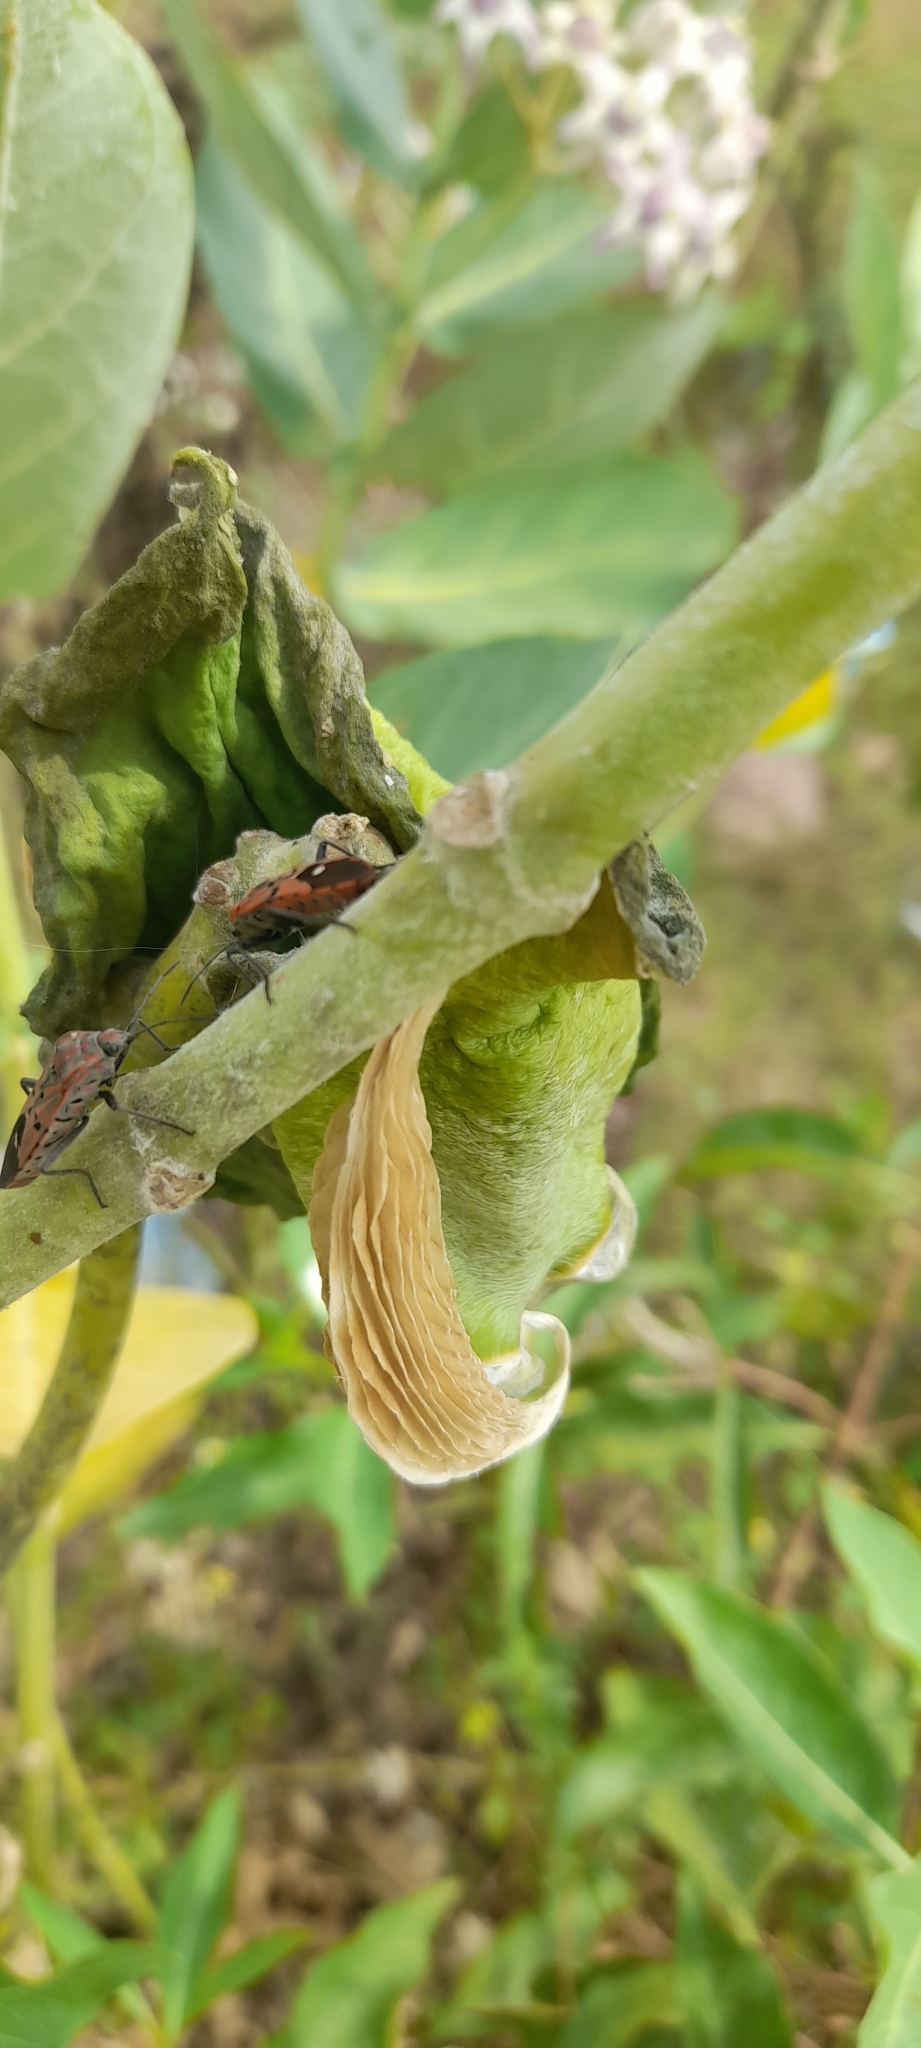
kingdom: Animalia
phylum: Arthropoda
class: Insecta
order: Hemiptera
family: Lygaeidae
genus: Spilostethus
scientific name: Spilostethus pandurus
